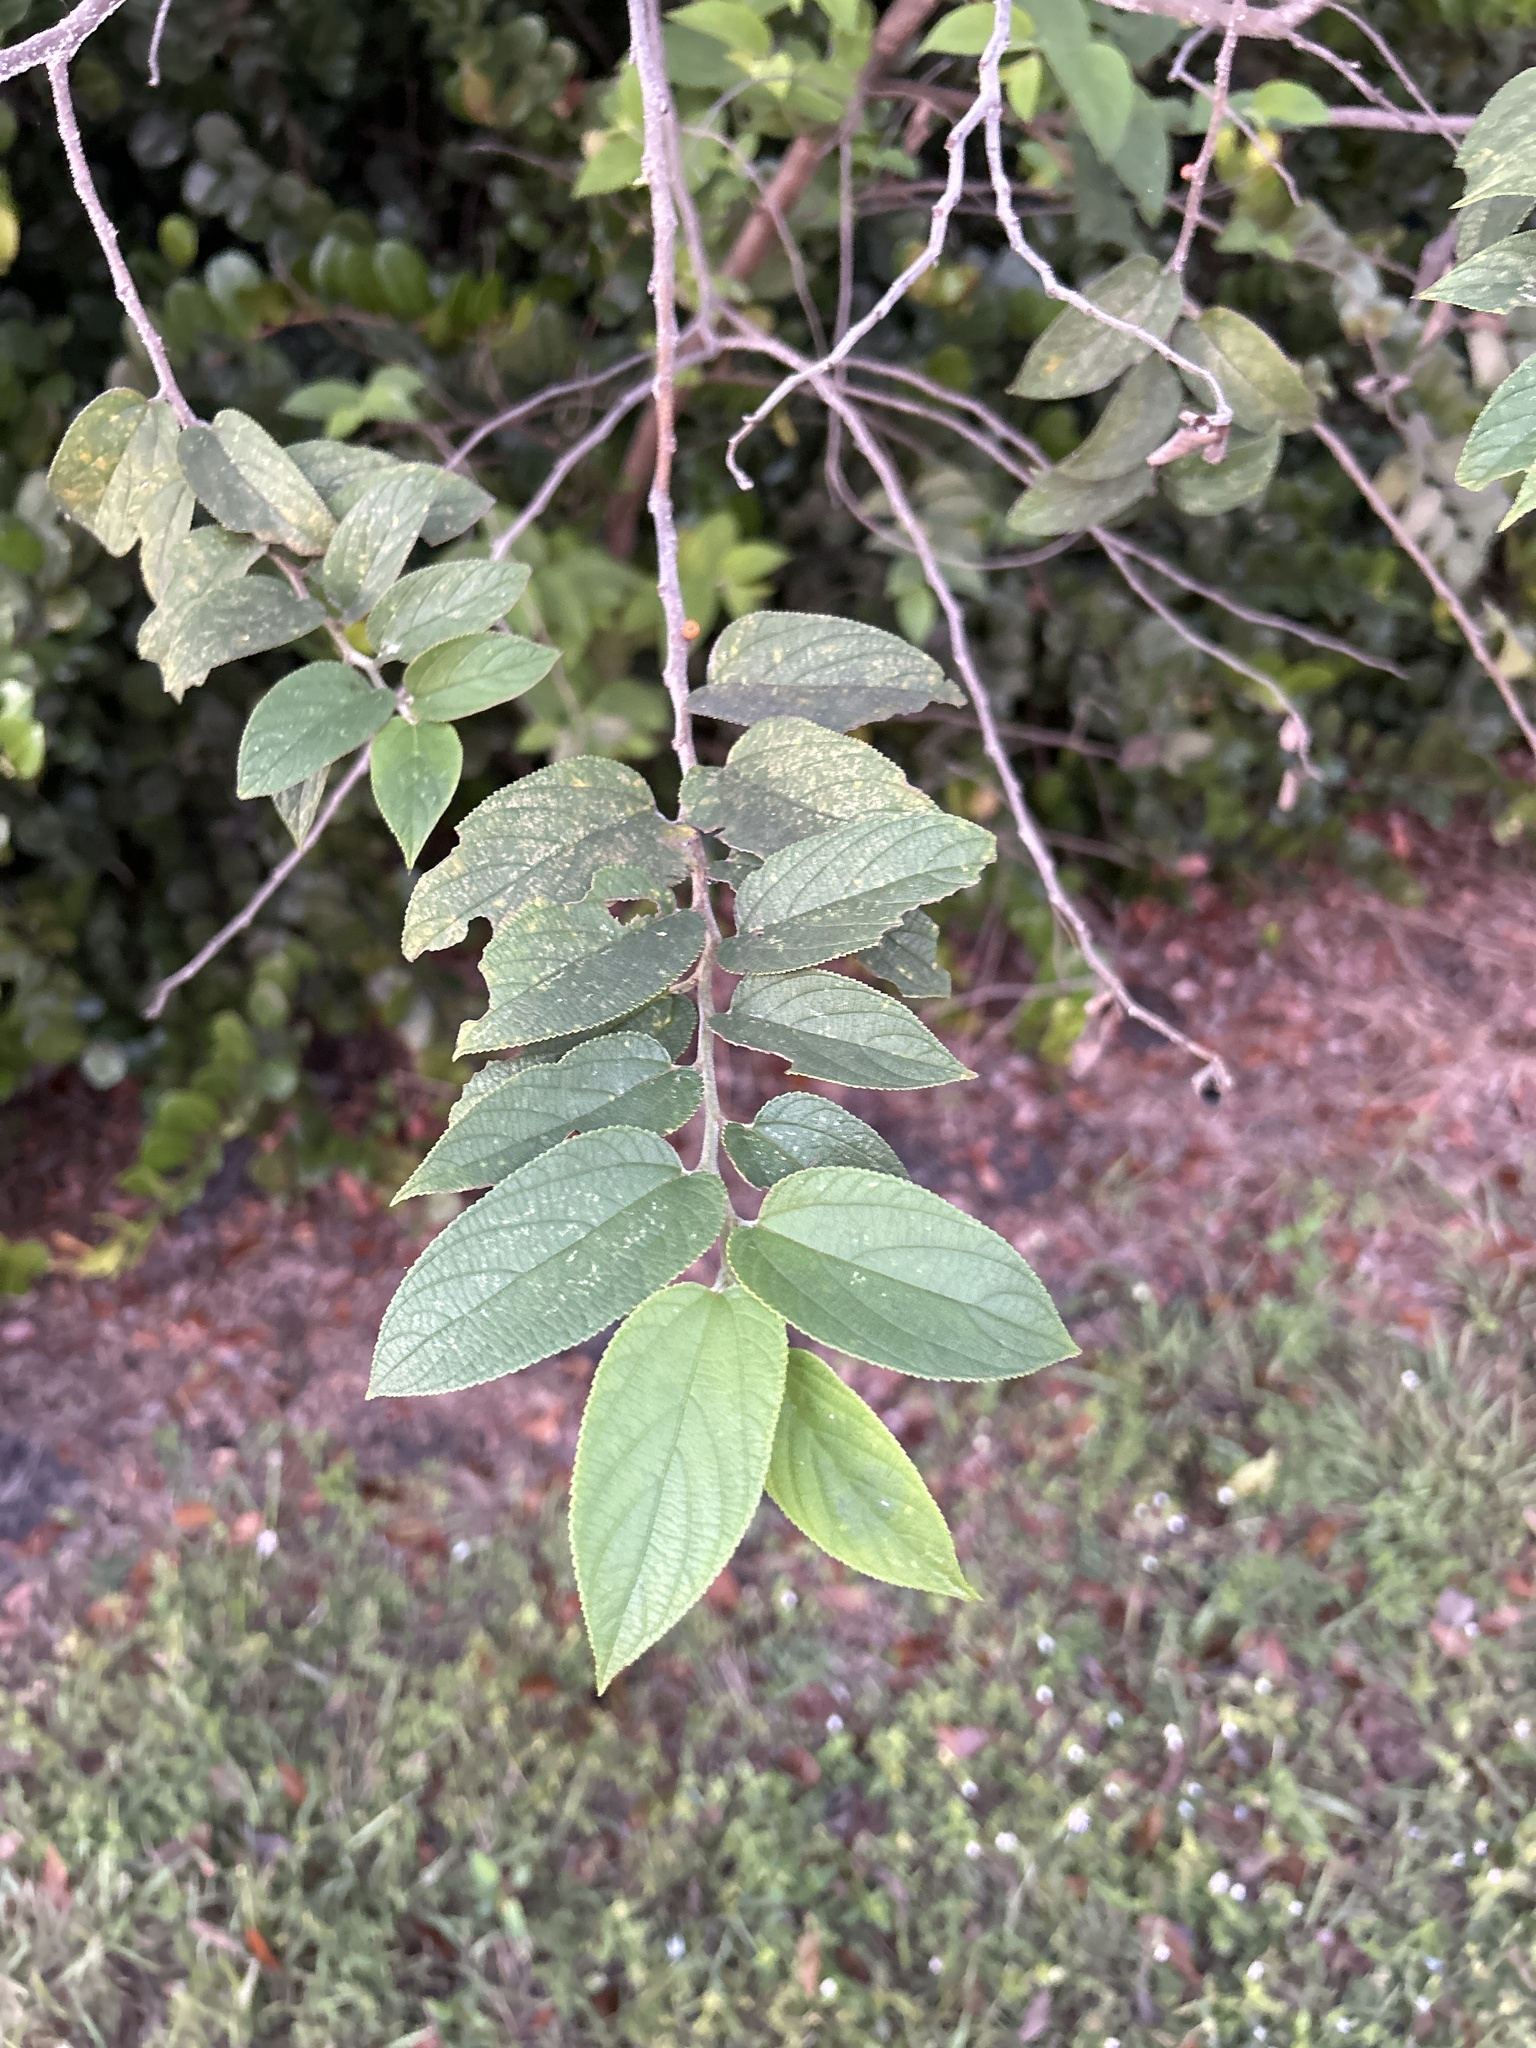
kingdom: Plantae
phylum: Tracheophyta
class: Magnoliopsida
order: Rosales
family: Cannabaceae
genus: Trema
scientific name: Trema micranthum
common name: Jamaican nettletree
